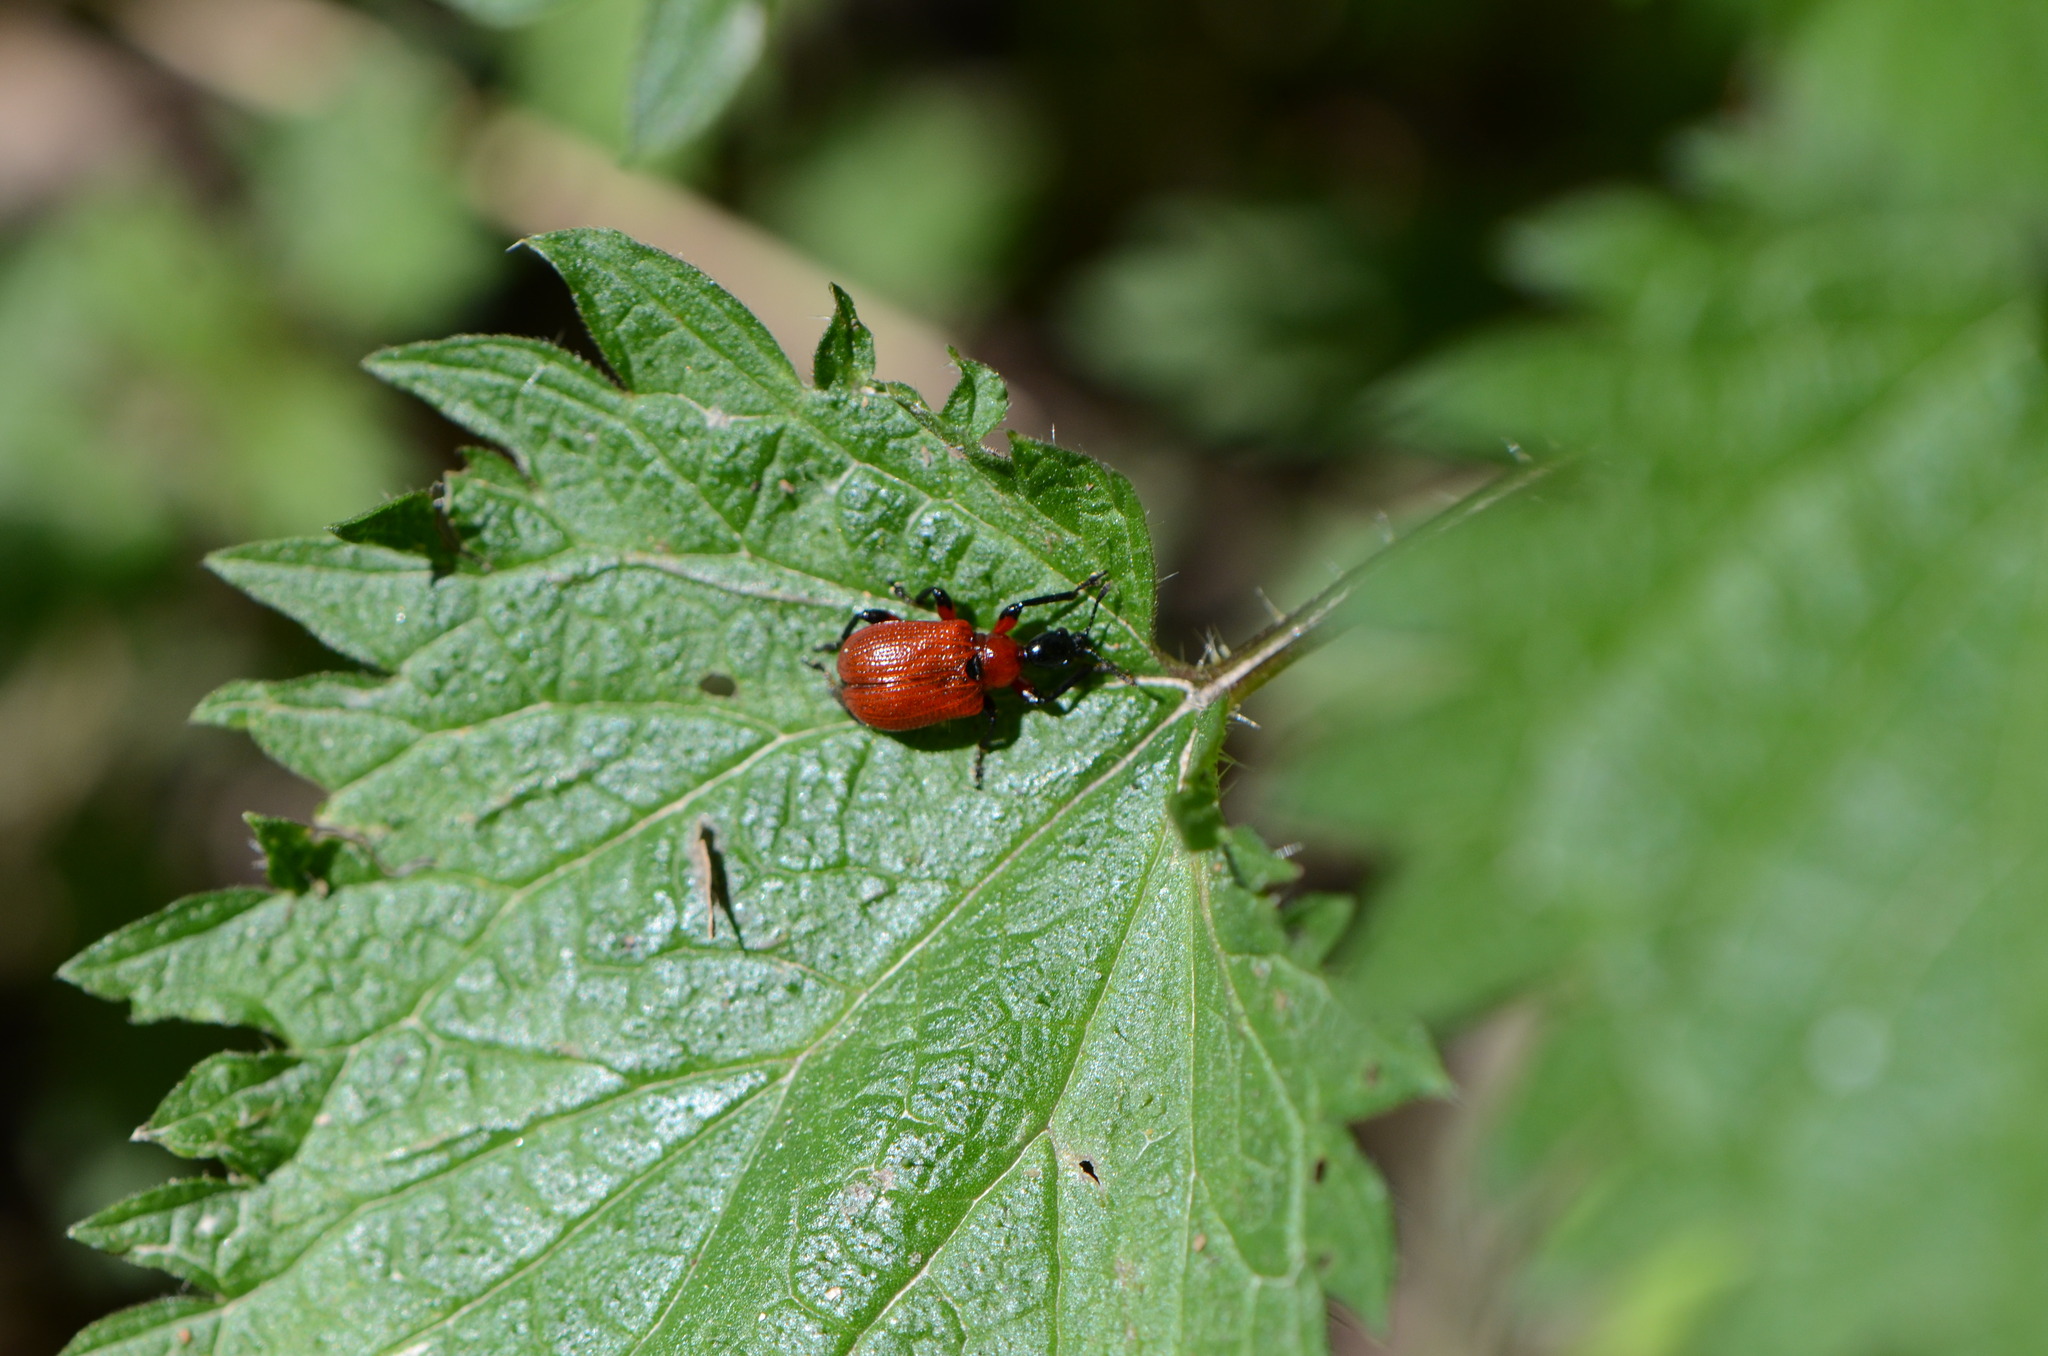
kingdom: Animalia
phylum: Arthropoda
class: Insecta
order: Coleoptera
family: Attelabidae
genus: Apoderus
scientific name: Apoderus coryli
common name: Hazel leaf roller
